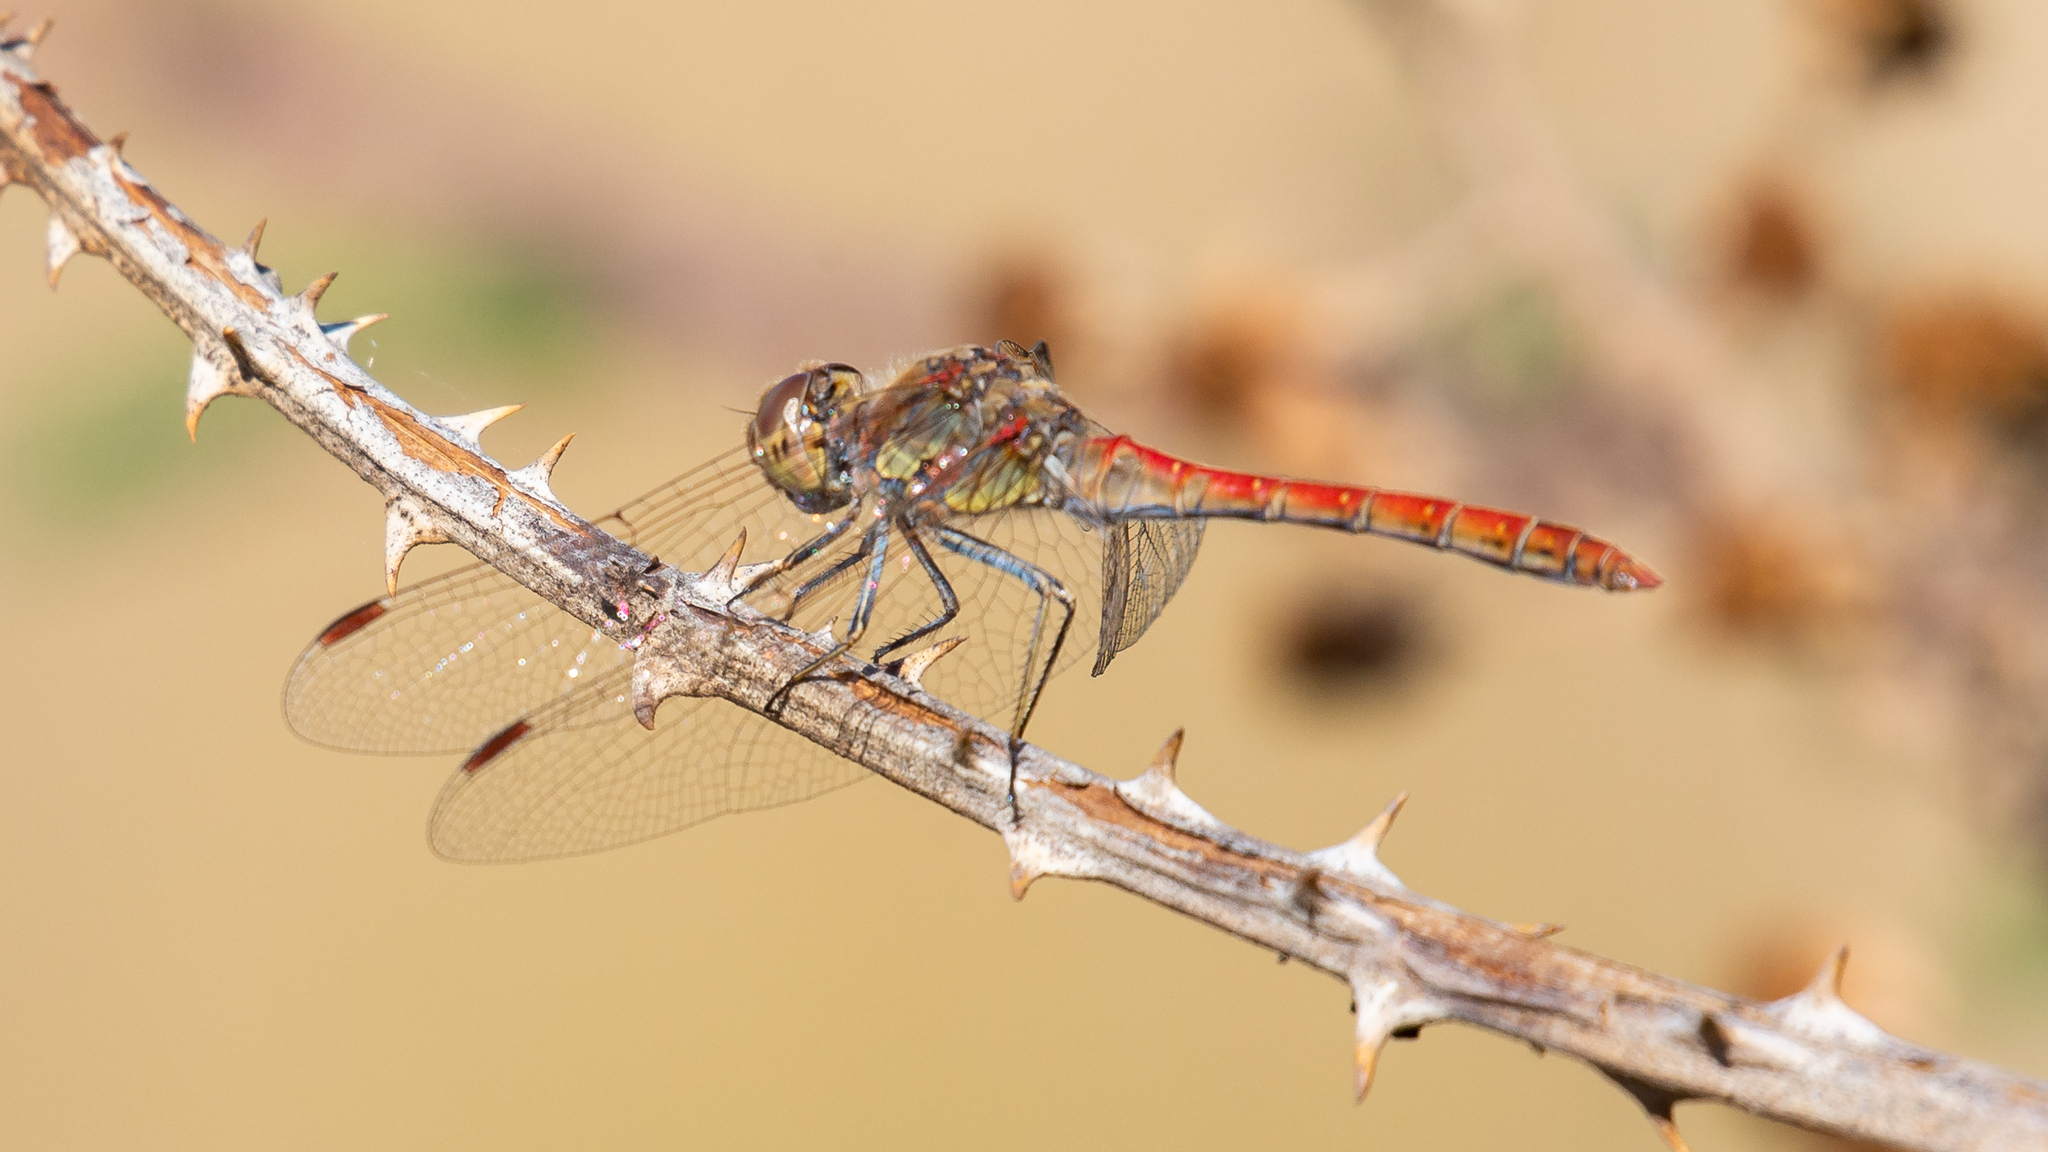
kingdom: Animalia
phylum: Arthropoda
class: Insecta
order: Odonata
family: Libellulidae
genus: Sympetrum
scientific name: Sympetrum striolatum
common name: Common darter
